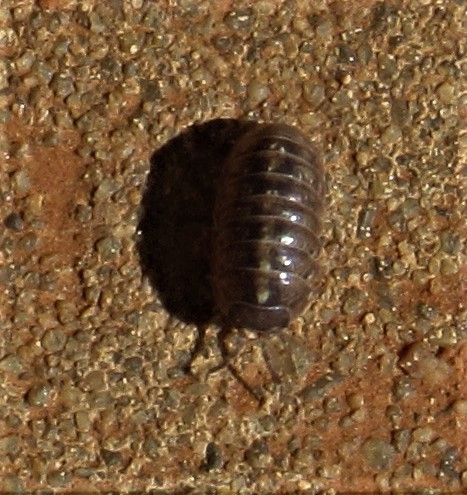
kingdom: Animalia
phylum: Arthropoda
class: Malacostraca
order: Isopoda
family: Armadillidiidae
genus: Armadillidium
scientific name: Armadillidium vulgare
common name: Common pill woodlouse
